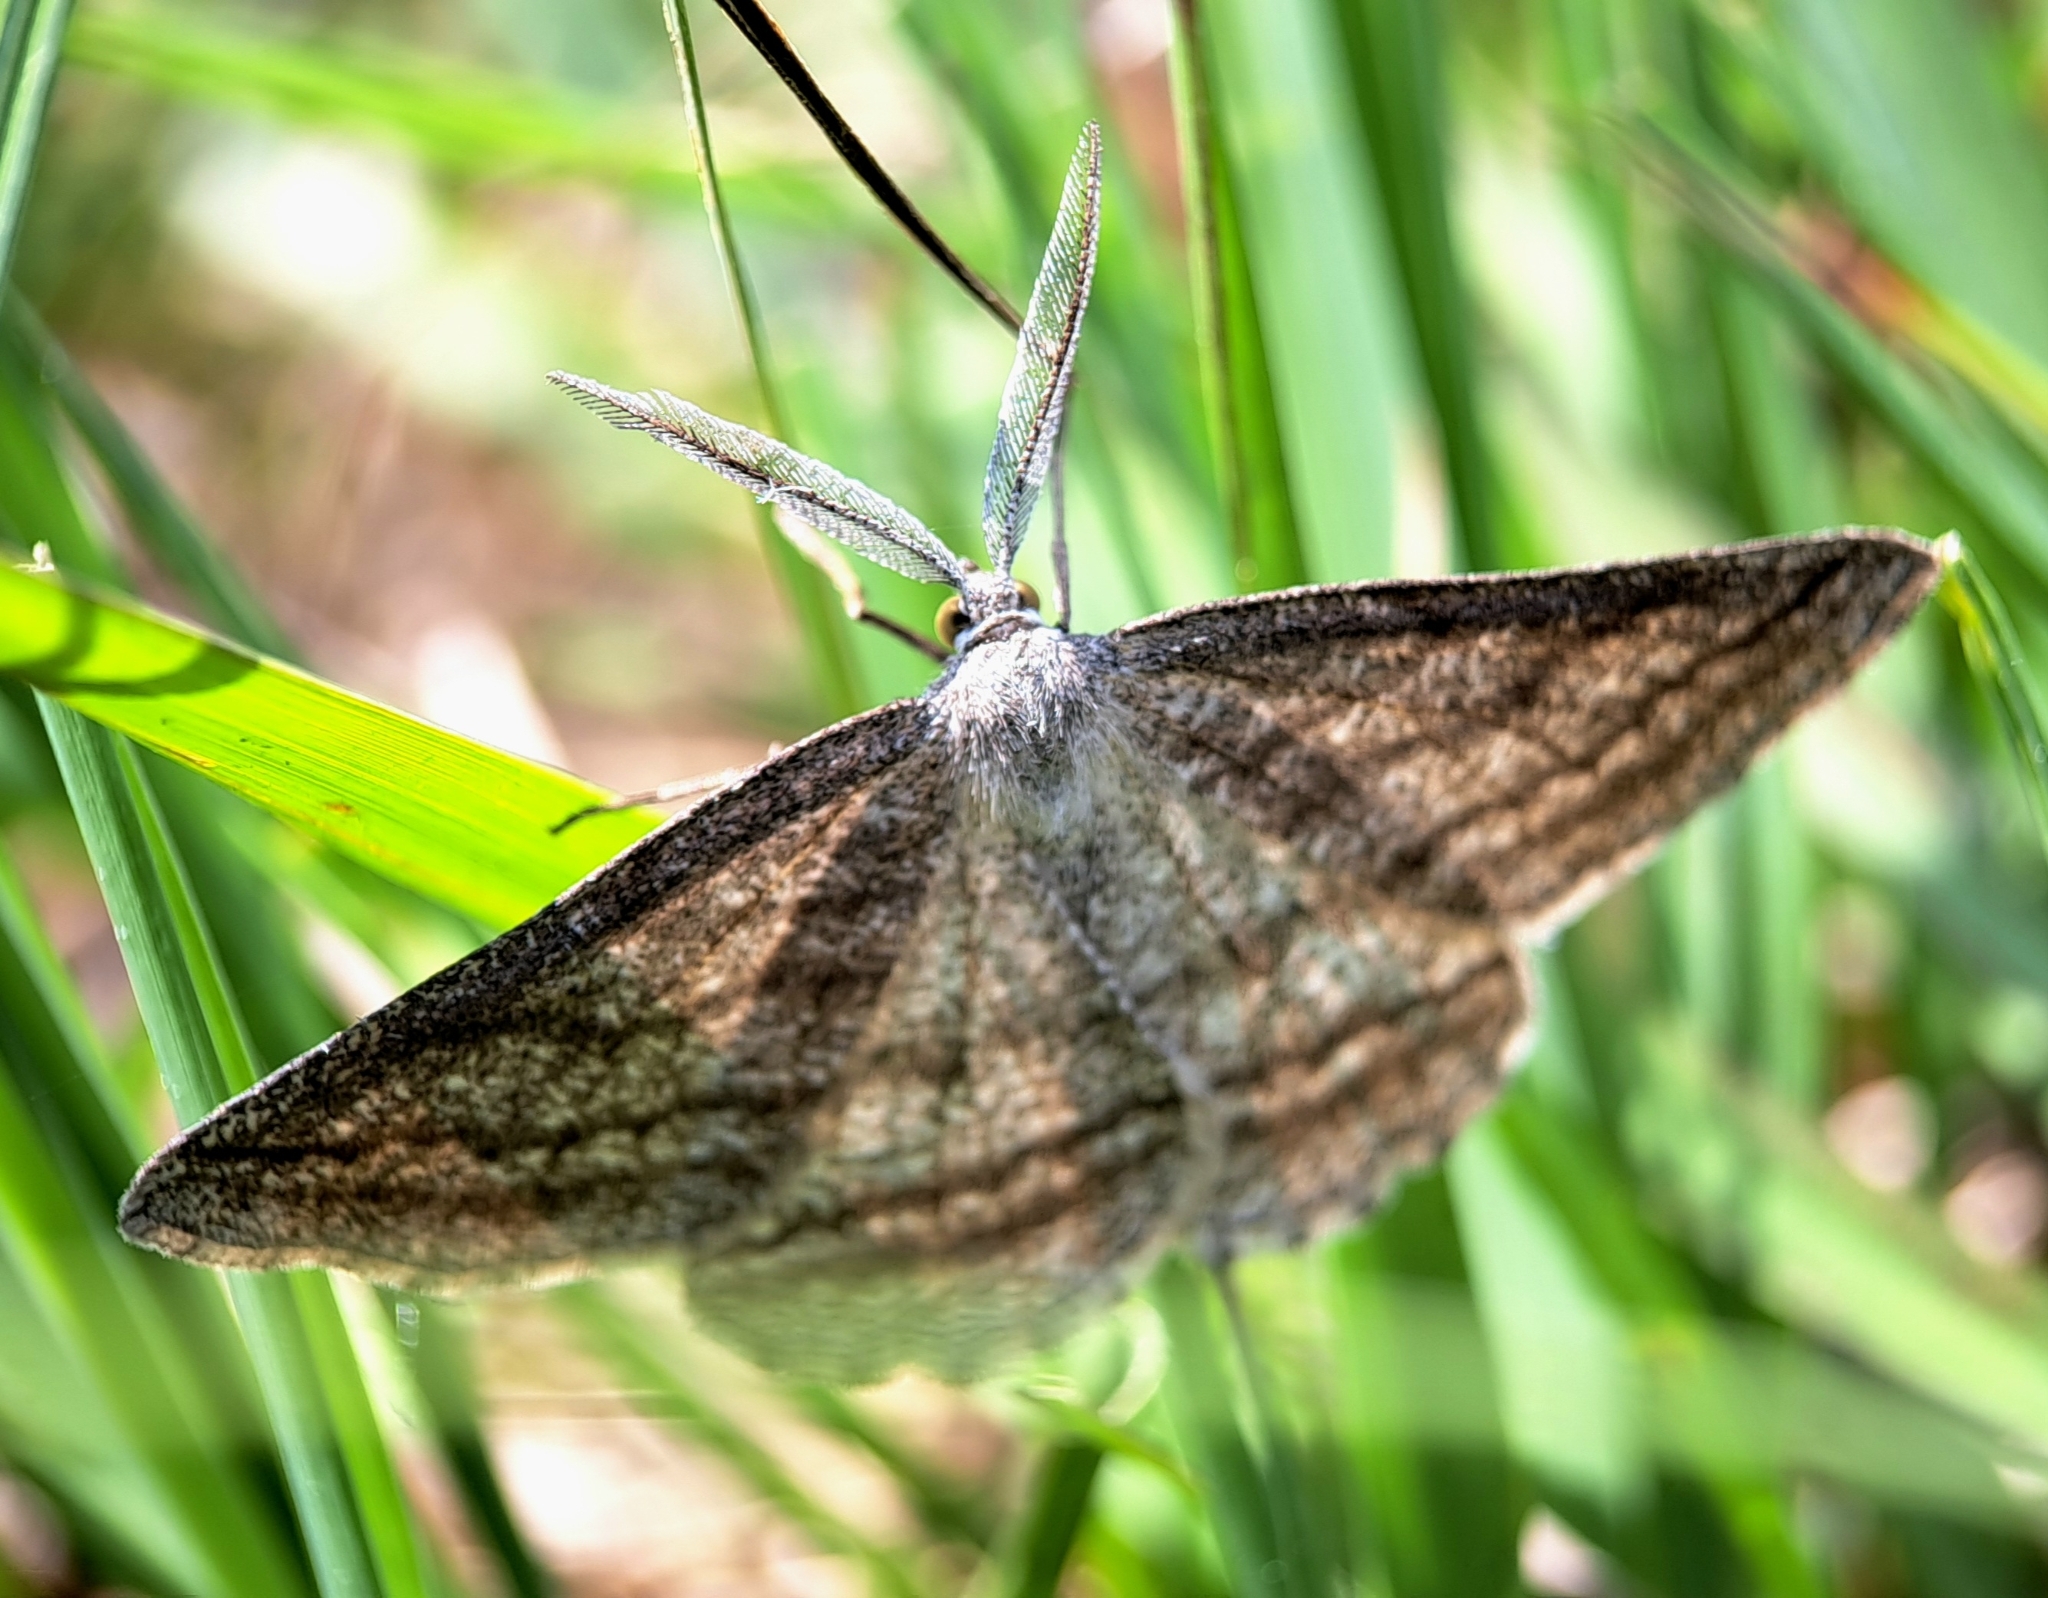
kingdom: Animalia
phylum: Arthropoda
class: Insecta
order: Lepidoptera
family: Geometridae
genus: Perconia
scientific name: Perconia strigillaria
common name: Grass wave
